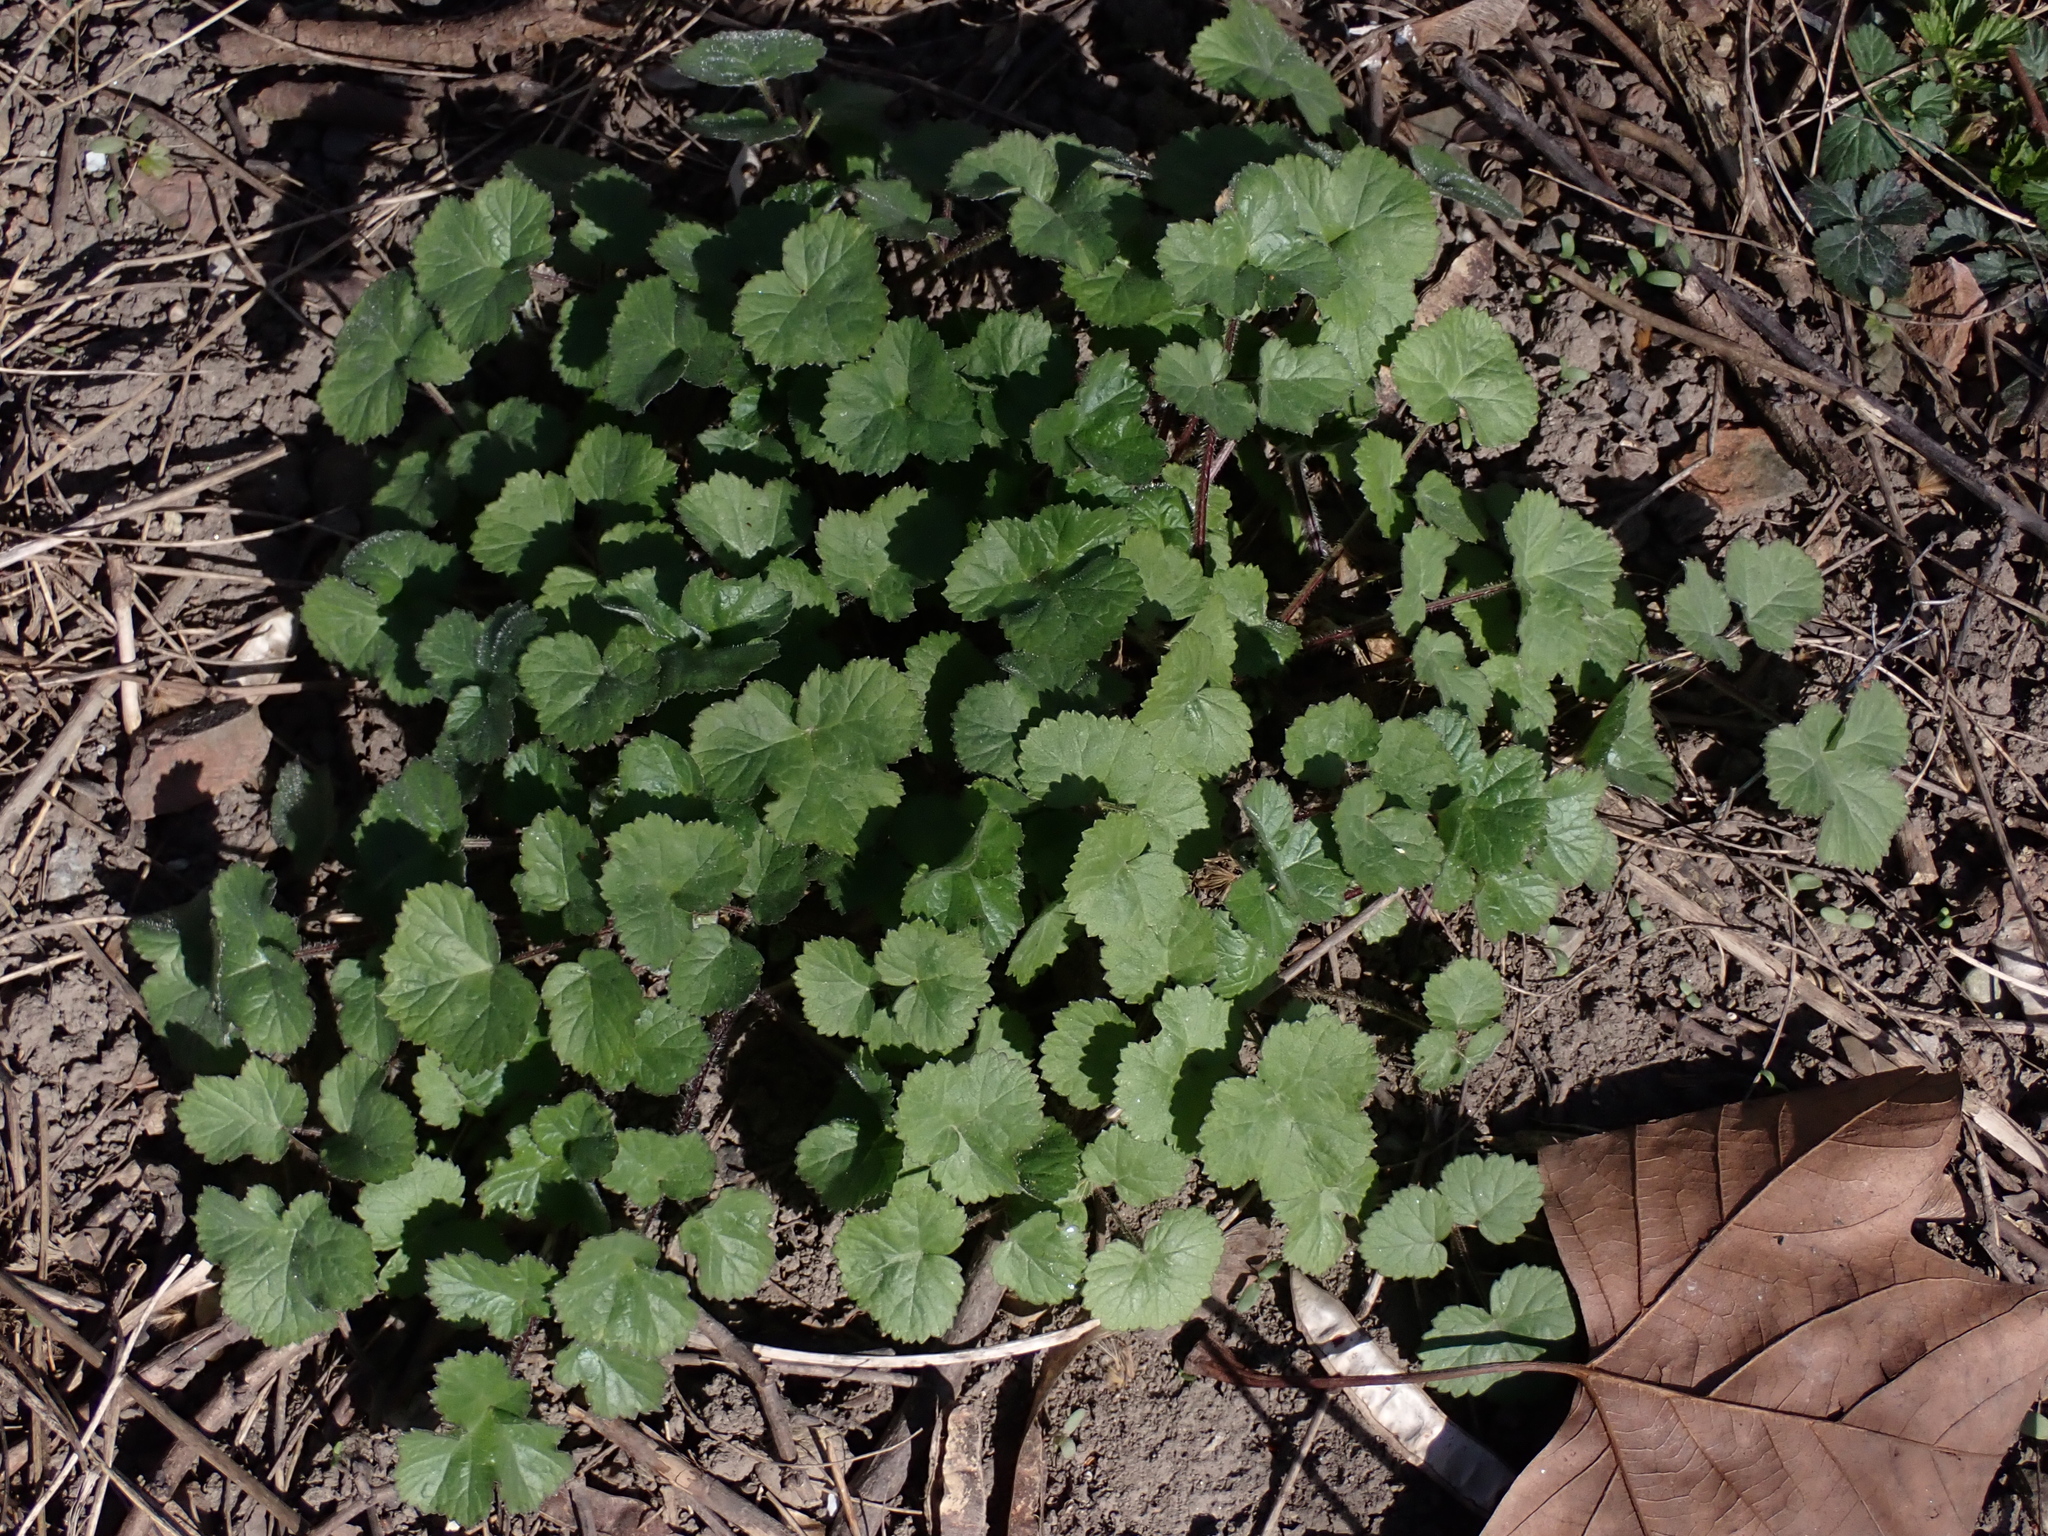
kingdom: Plantae
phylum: Tracheophyta
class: Magnoliopsida
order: Apiales
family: Apiaceae
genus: Heracleum
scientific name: Heracleum sphondylium
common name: Hogweed
